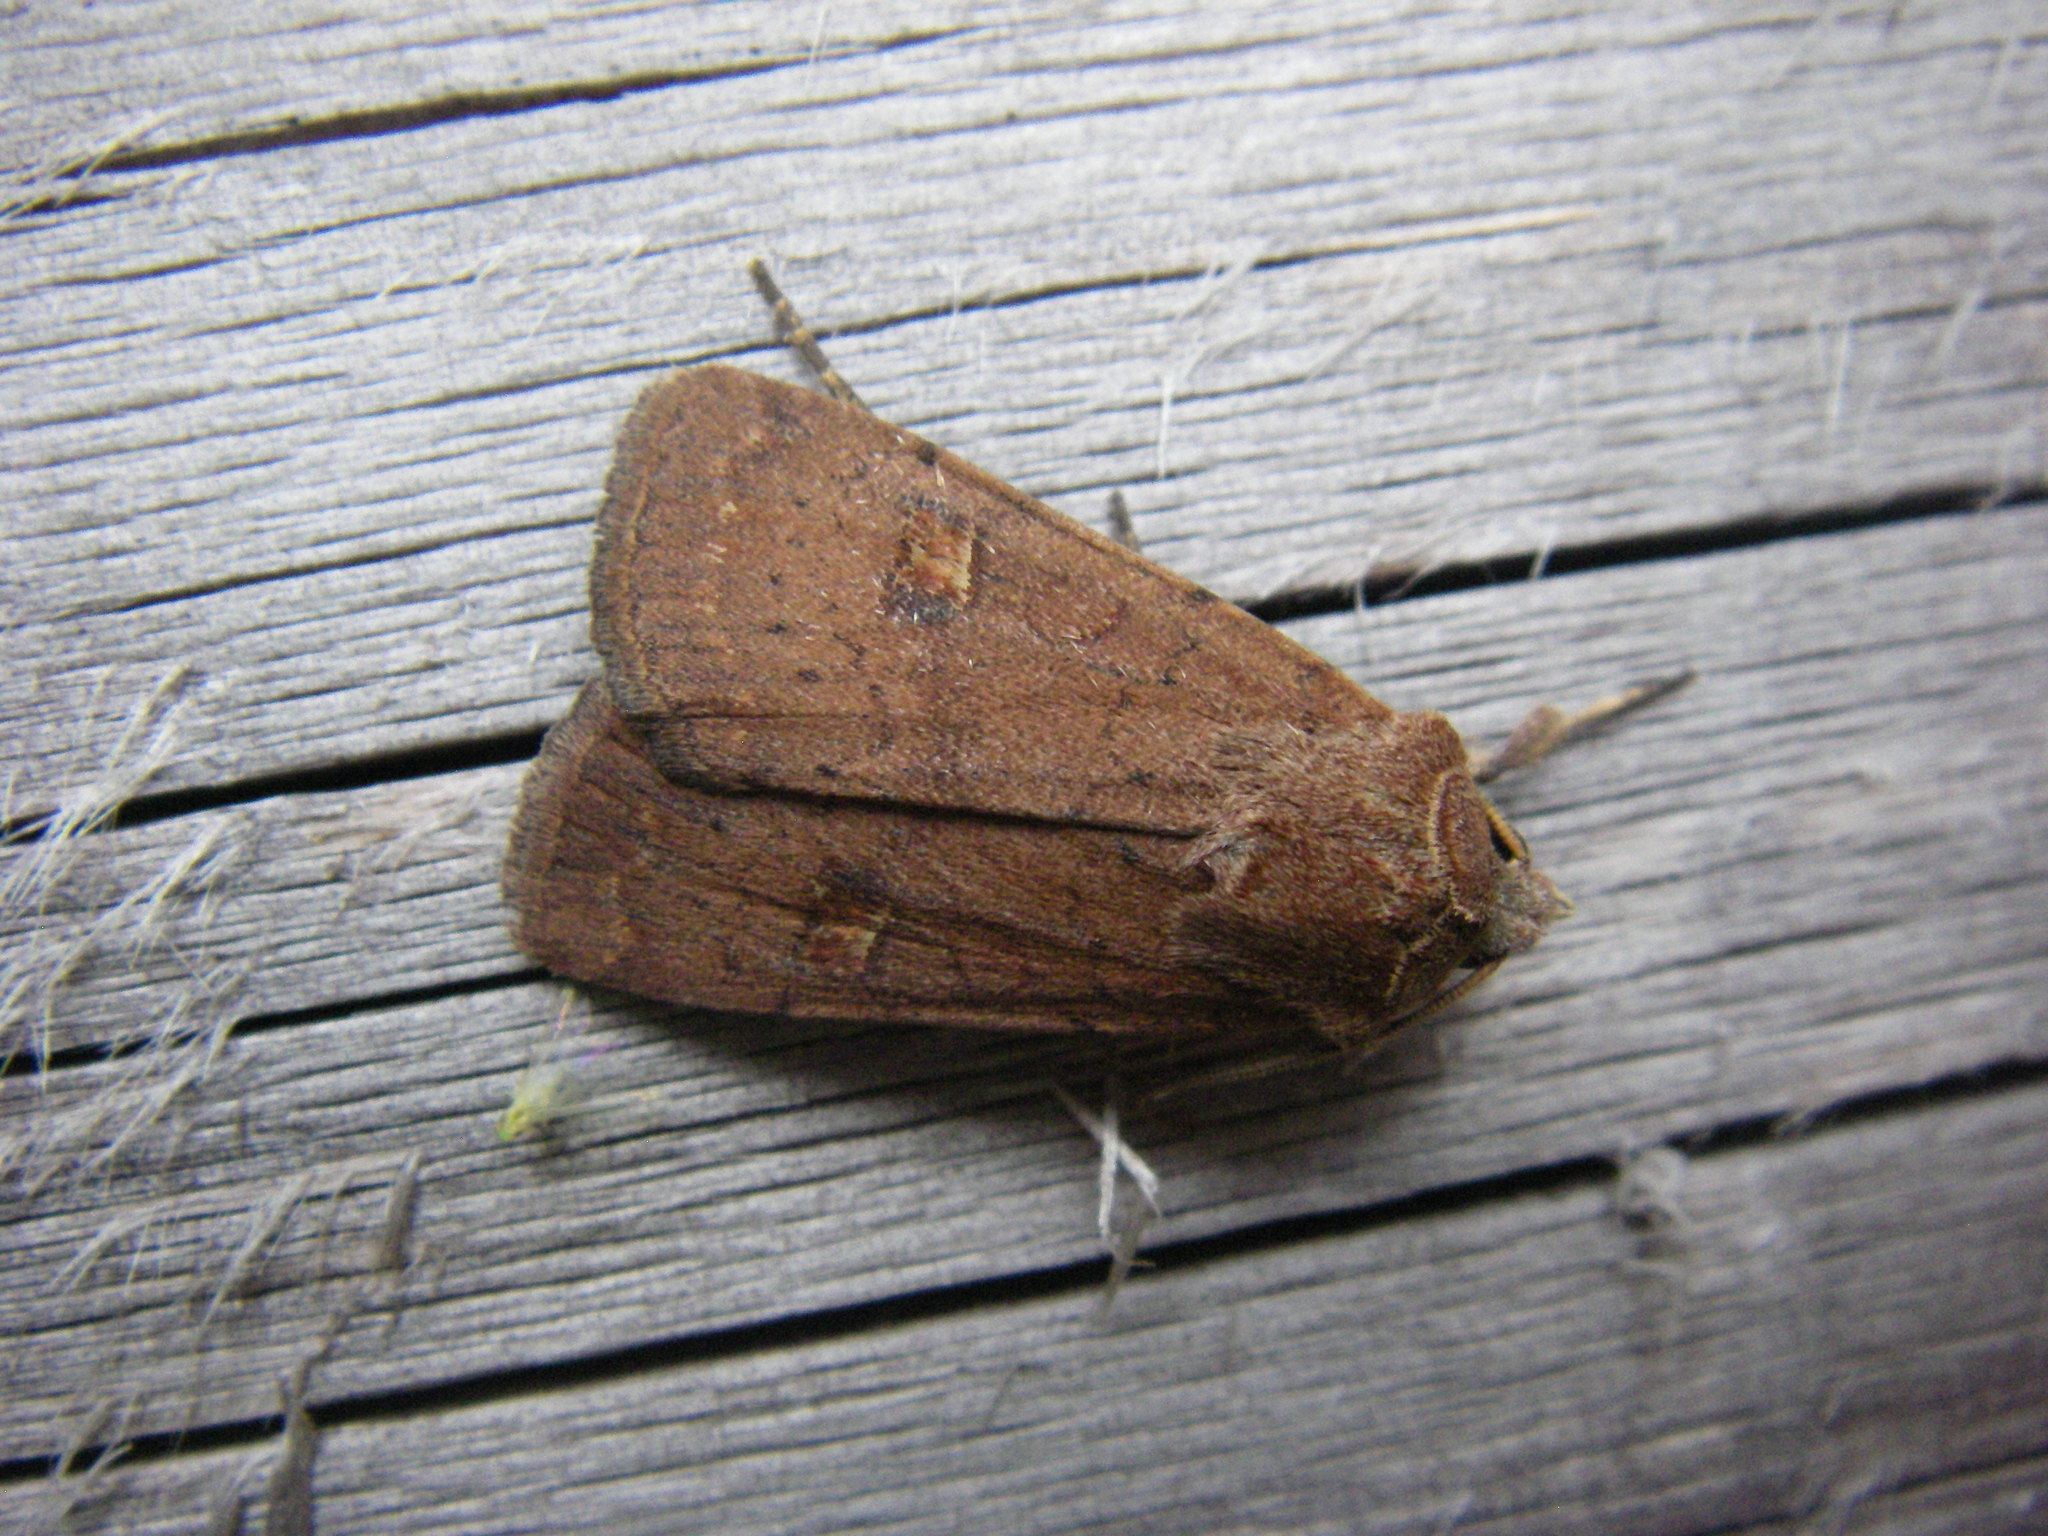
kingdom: Animalia
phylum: Arthropoda
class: Insecta
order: Lepidoptera
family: Noctuidae
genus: Xestia
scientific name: Xestia xanthographa
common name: Square-spot rustic
